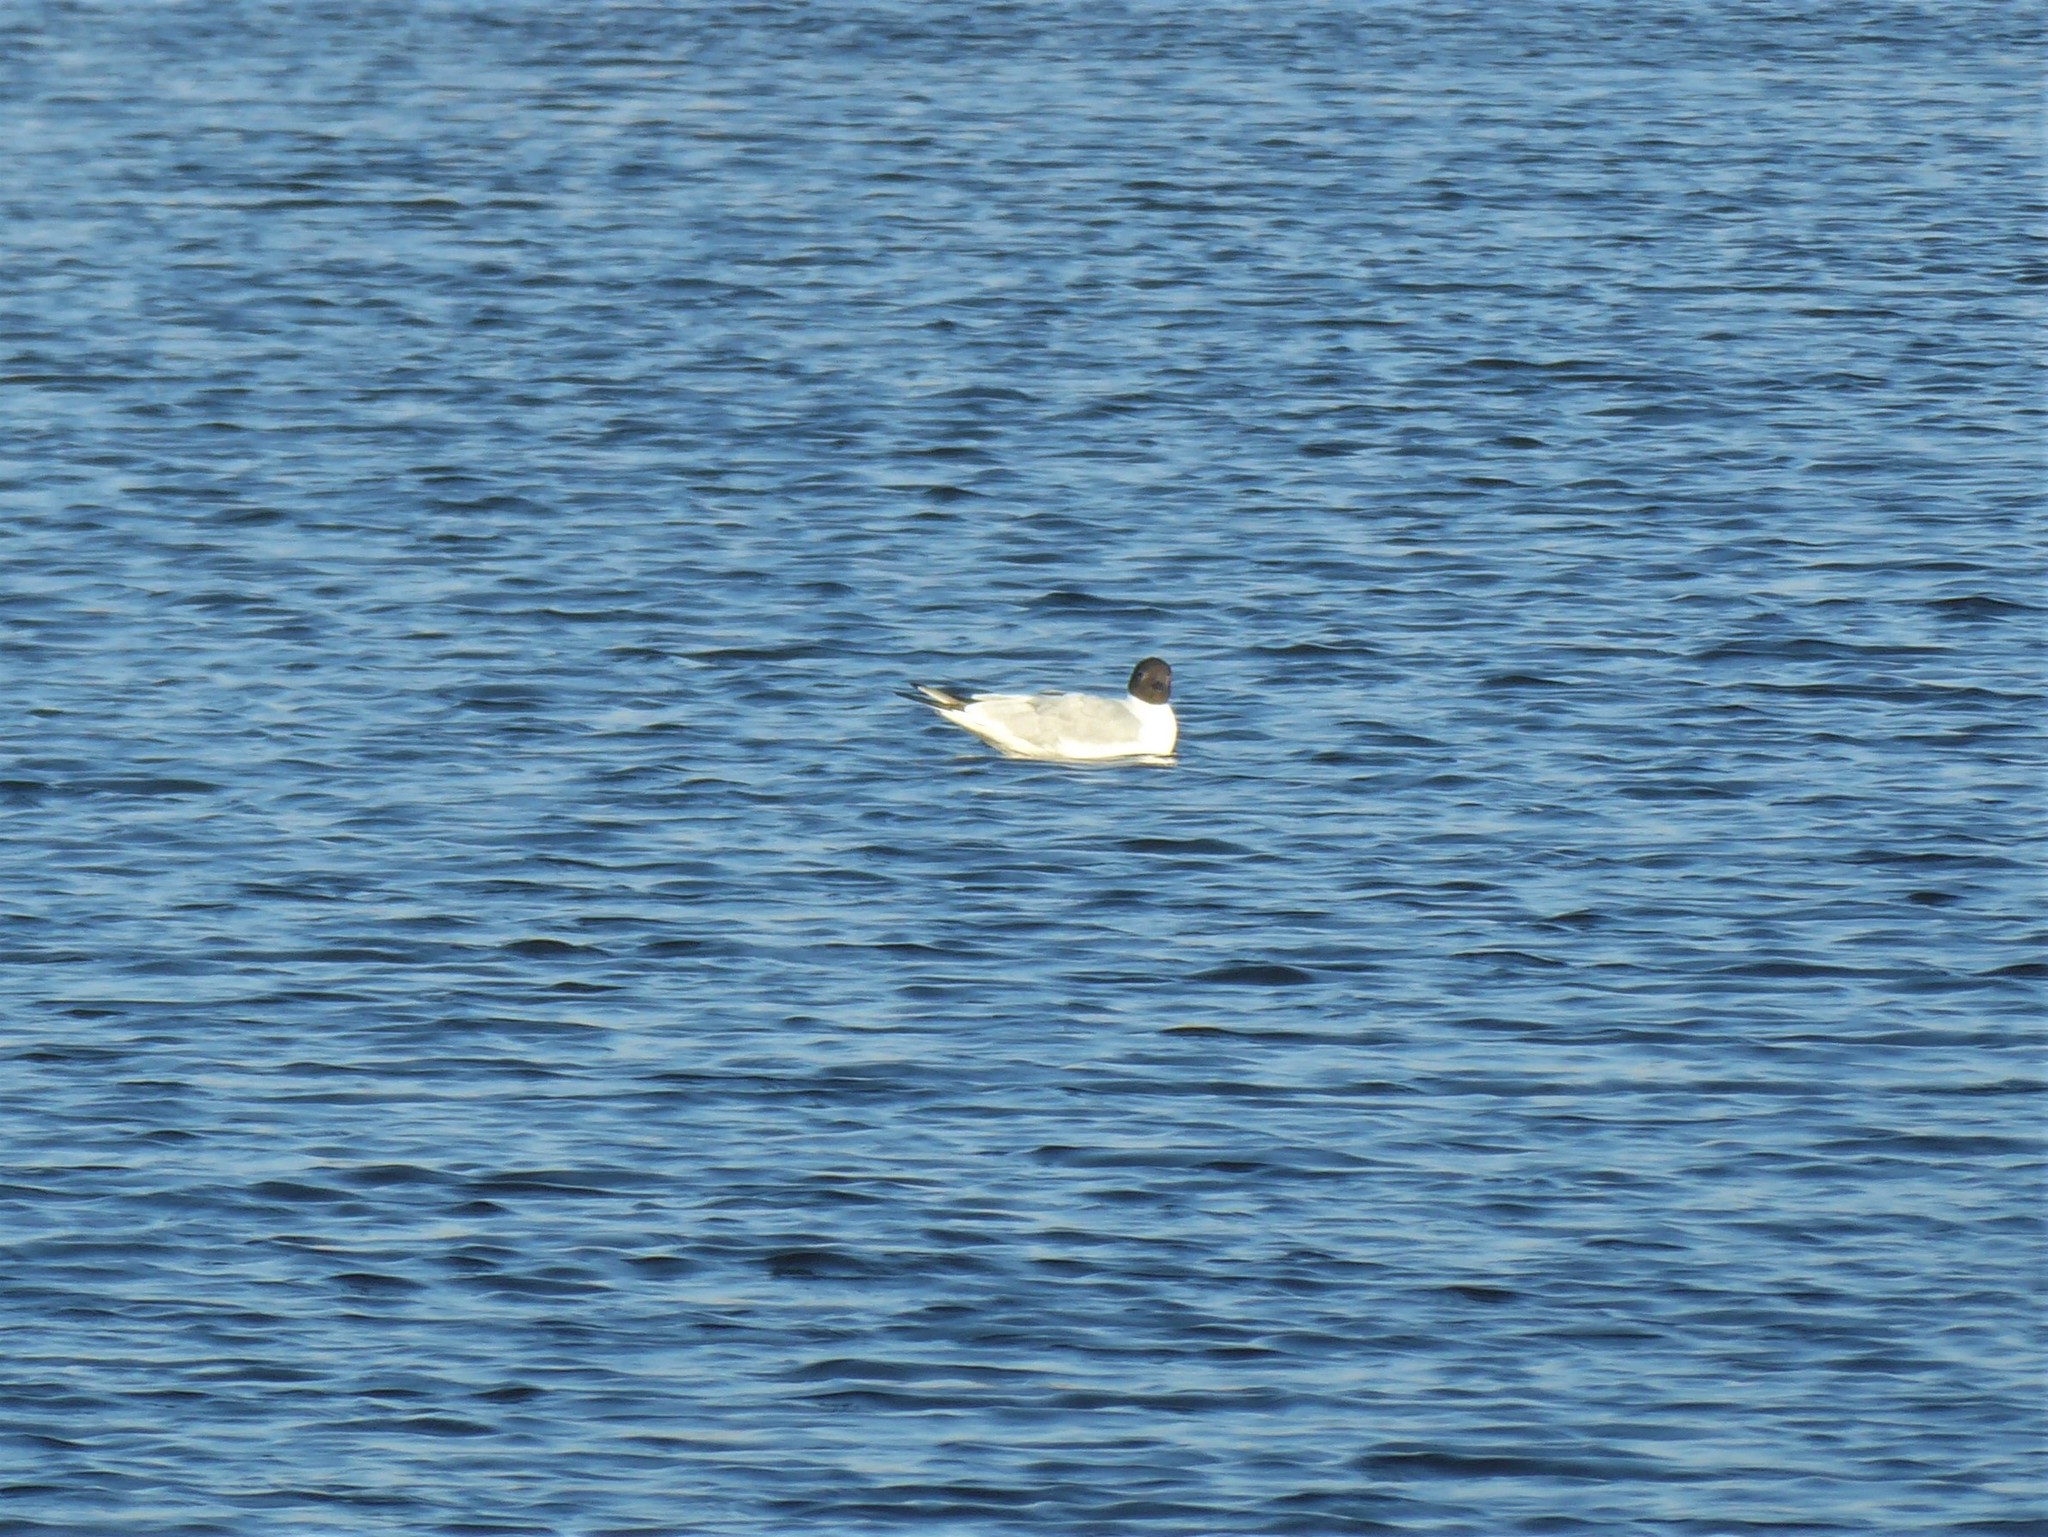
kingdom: Animalia
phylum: Chordata
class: Aves
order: Charadriiformes
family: Laridae
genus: Chroicocephalus
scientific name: Chroicocephalus ridibundus
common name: Black-headed gull
